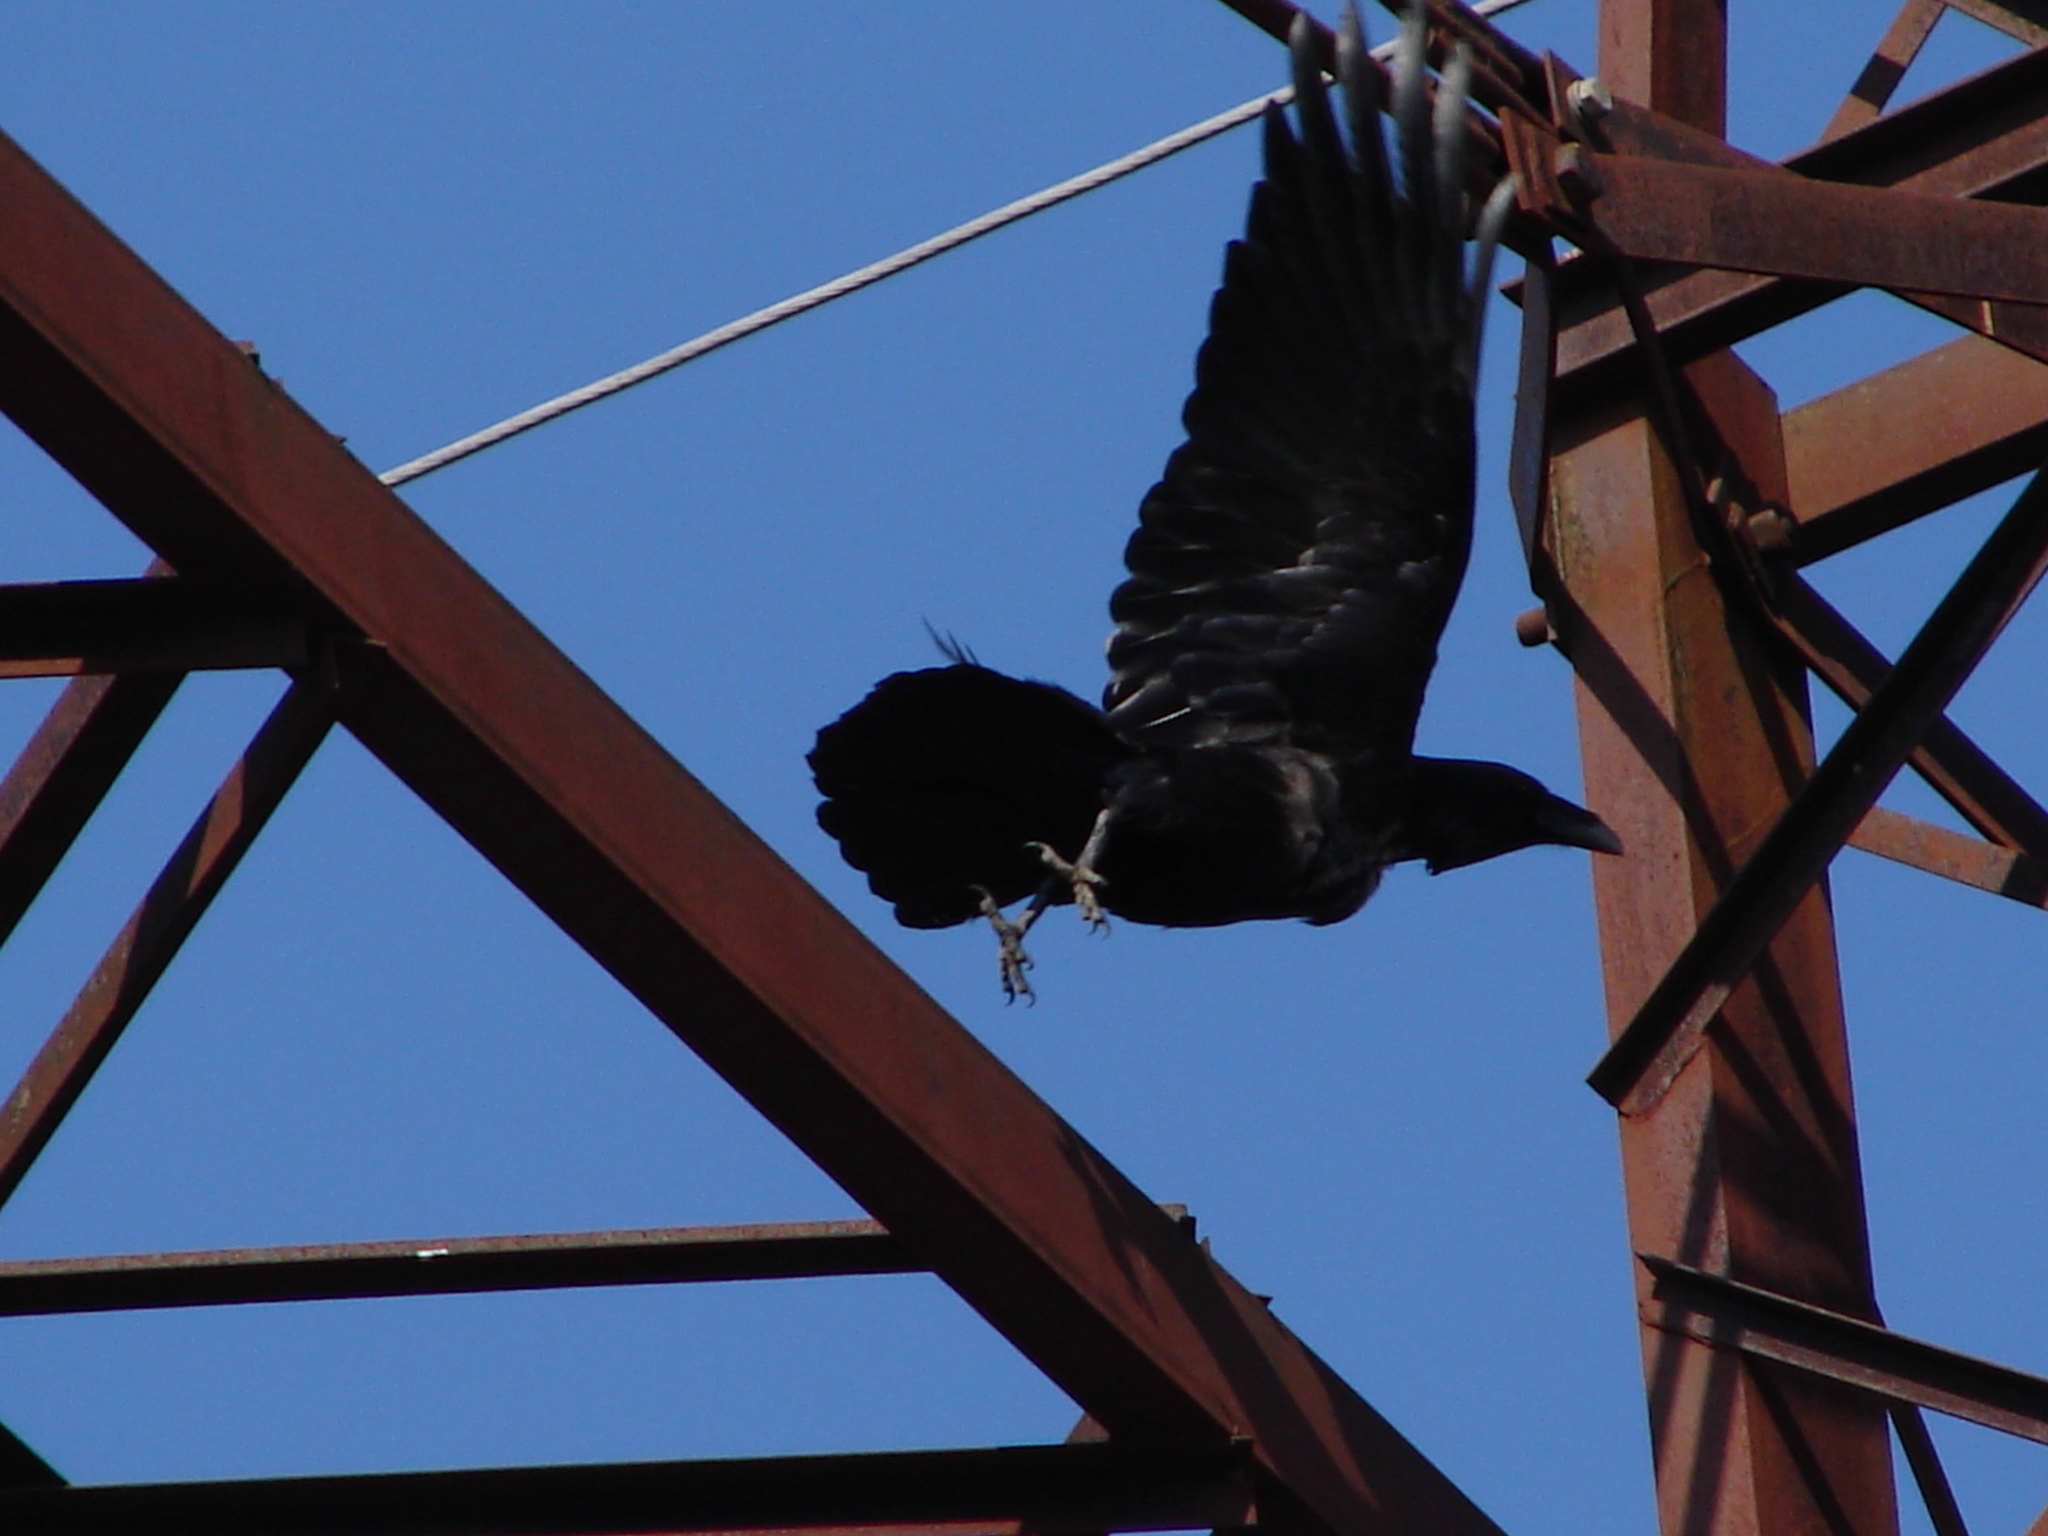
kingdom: Animalia
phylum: Chordata
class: Aves
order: Passeriformes
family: Corvidae
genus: Corvus
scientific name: Corvus corax
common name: Common raven
